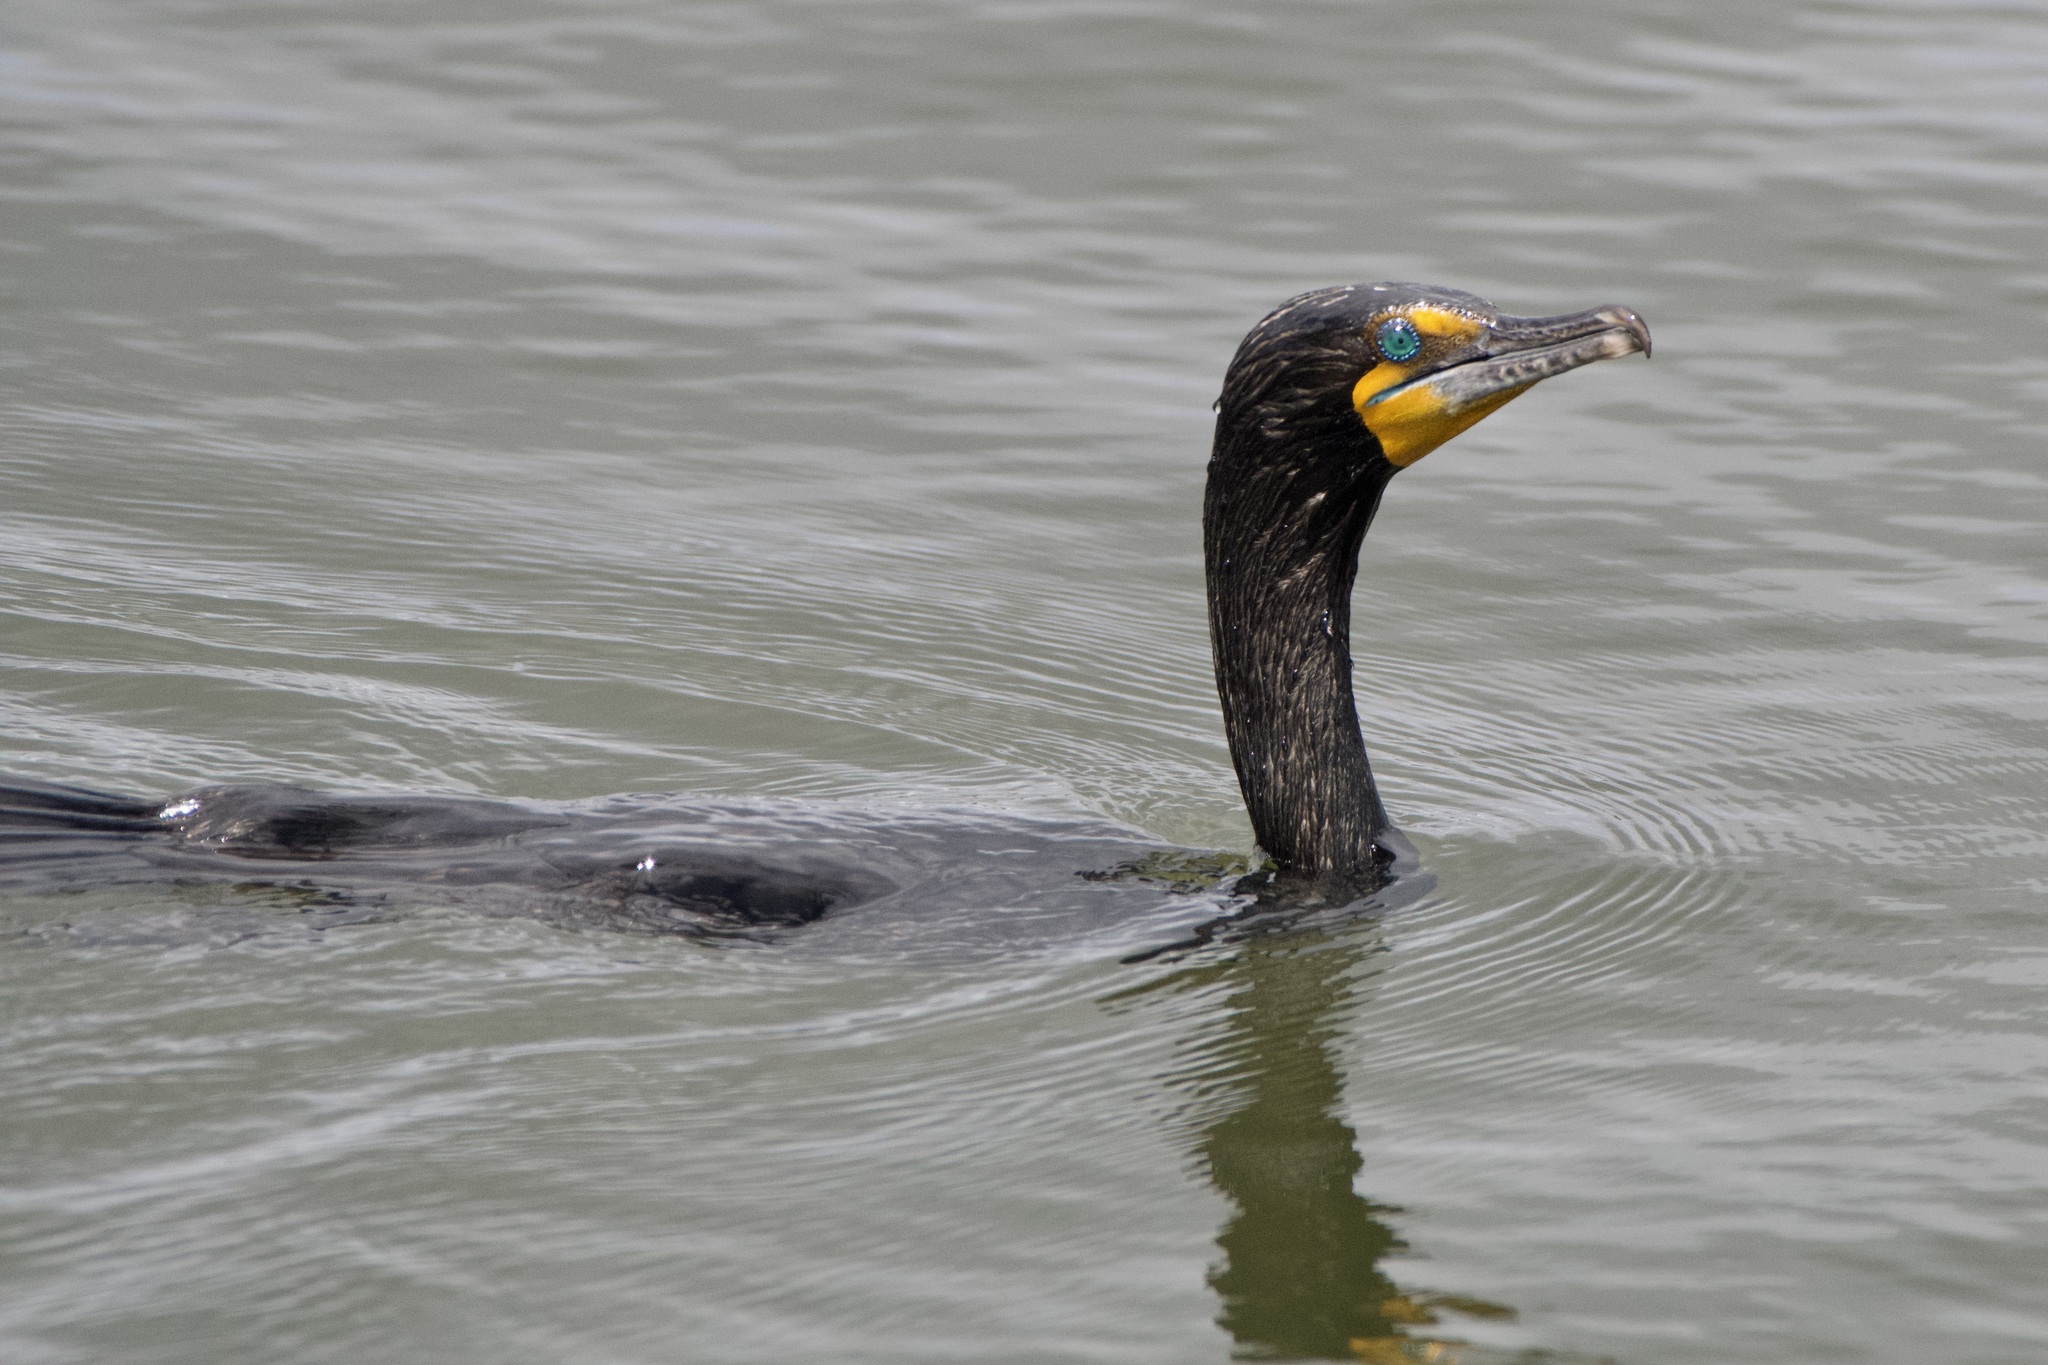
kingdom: Animalia
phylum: Chordata
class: Aves
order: Suliformes
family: Phalacrocoracidae
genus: Phalacrocorax
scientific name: Phalacrocorax auritus
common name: Double-crested cormorant
